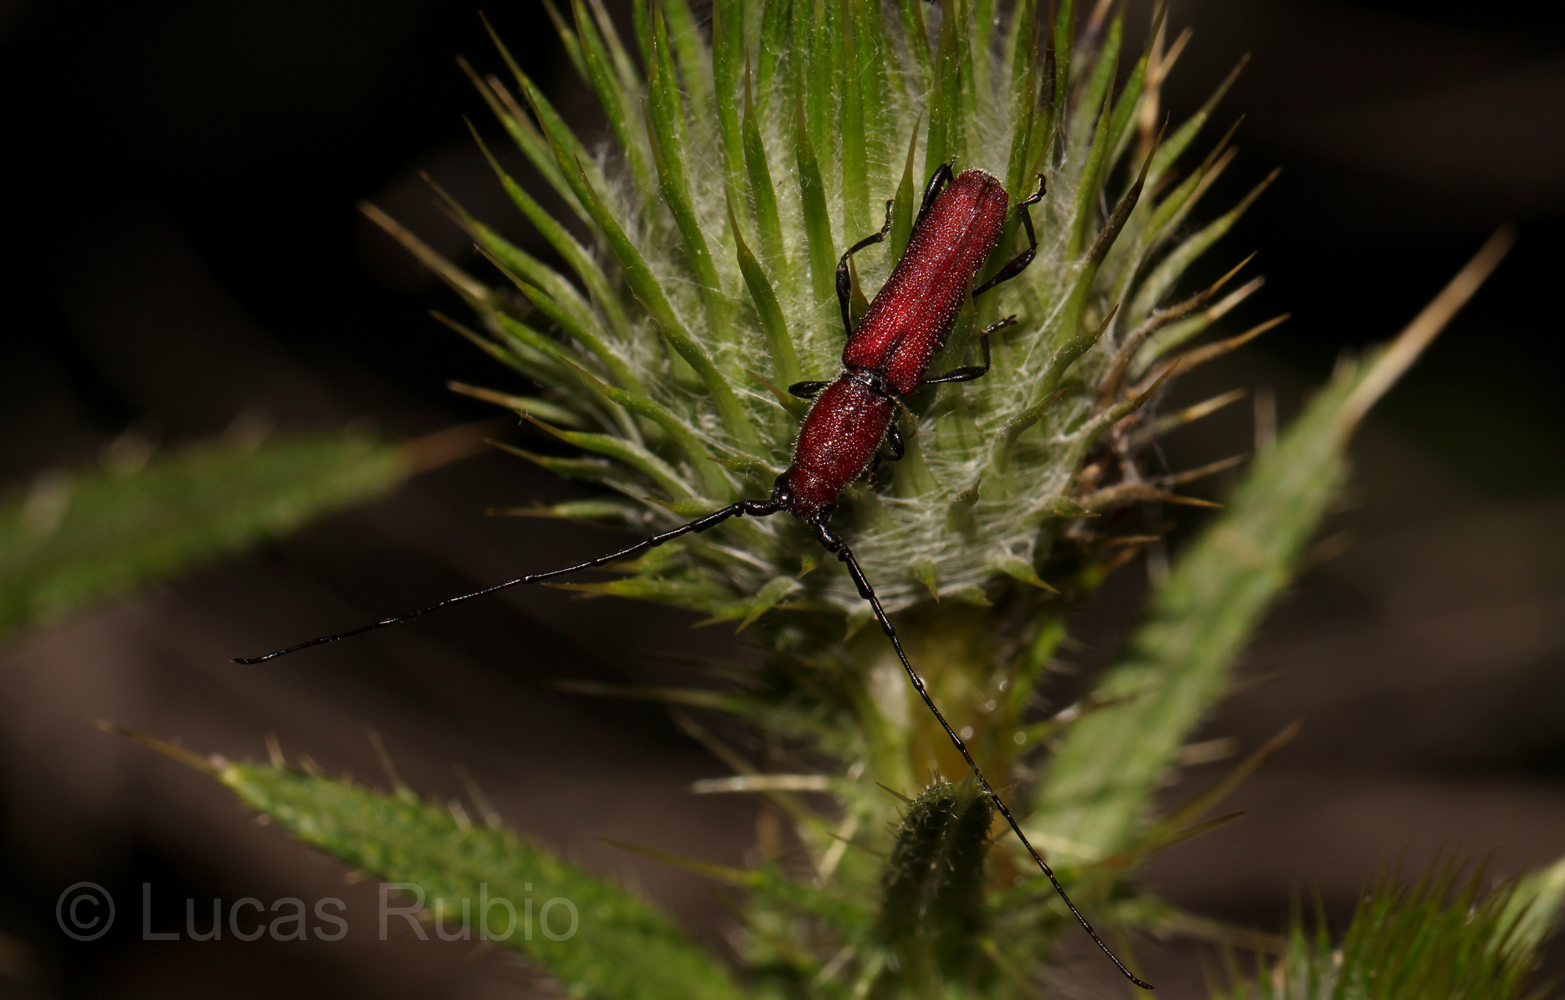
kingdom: Animalia
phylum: Arthropoda
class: Insecta
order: Coleoptera
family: Cerambycidae
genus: Ancylocera
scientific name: Ancylocera cardinalis
